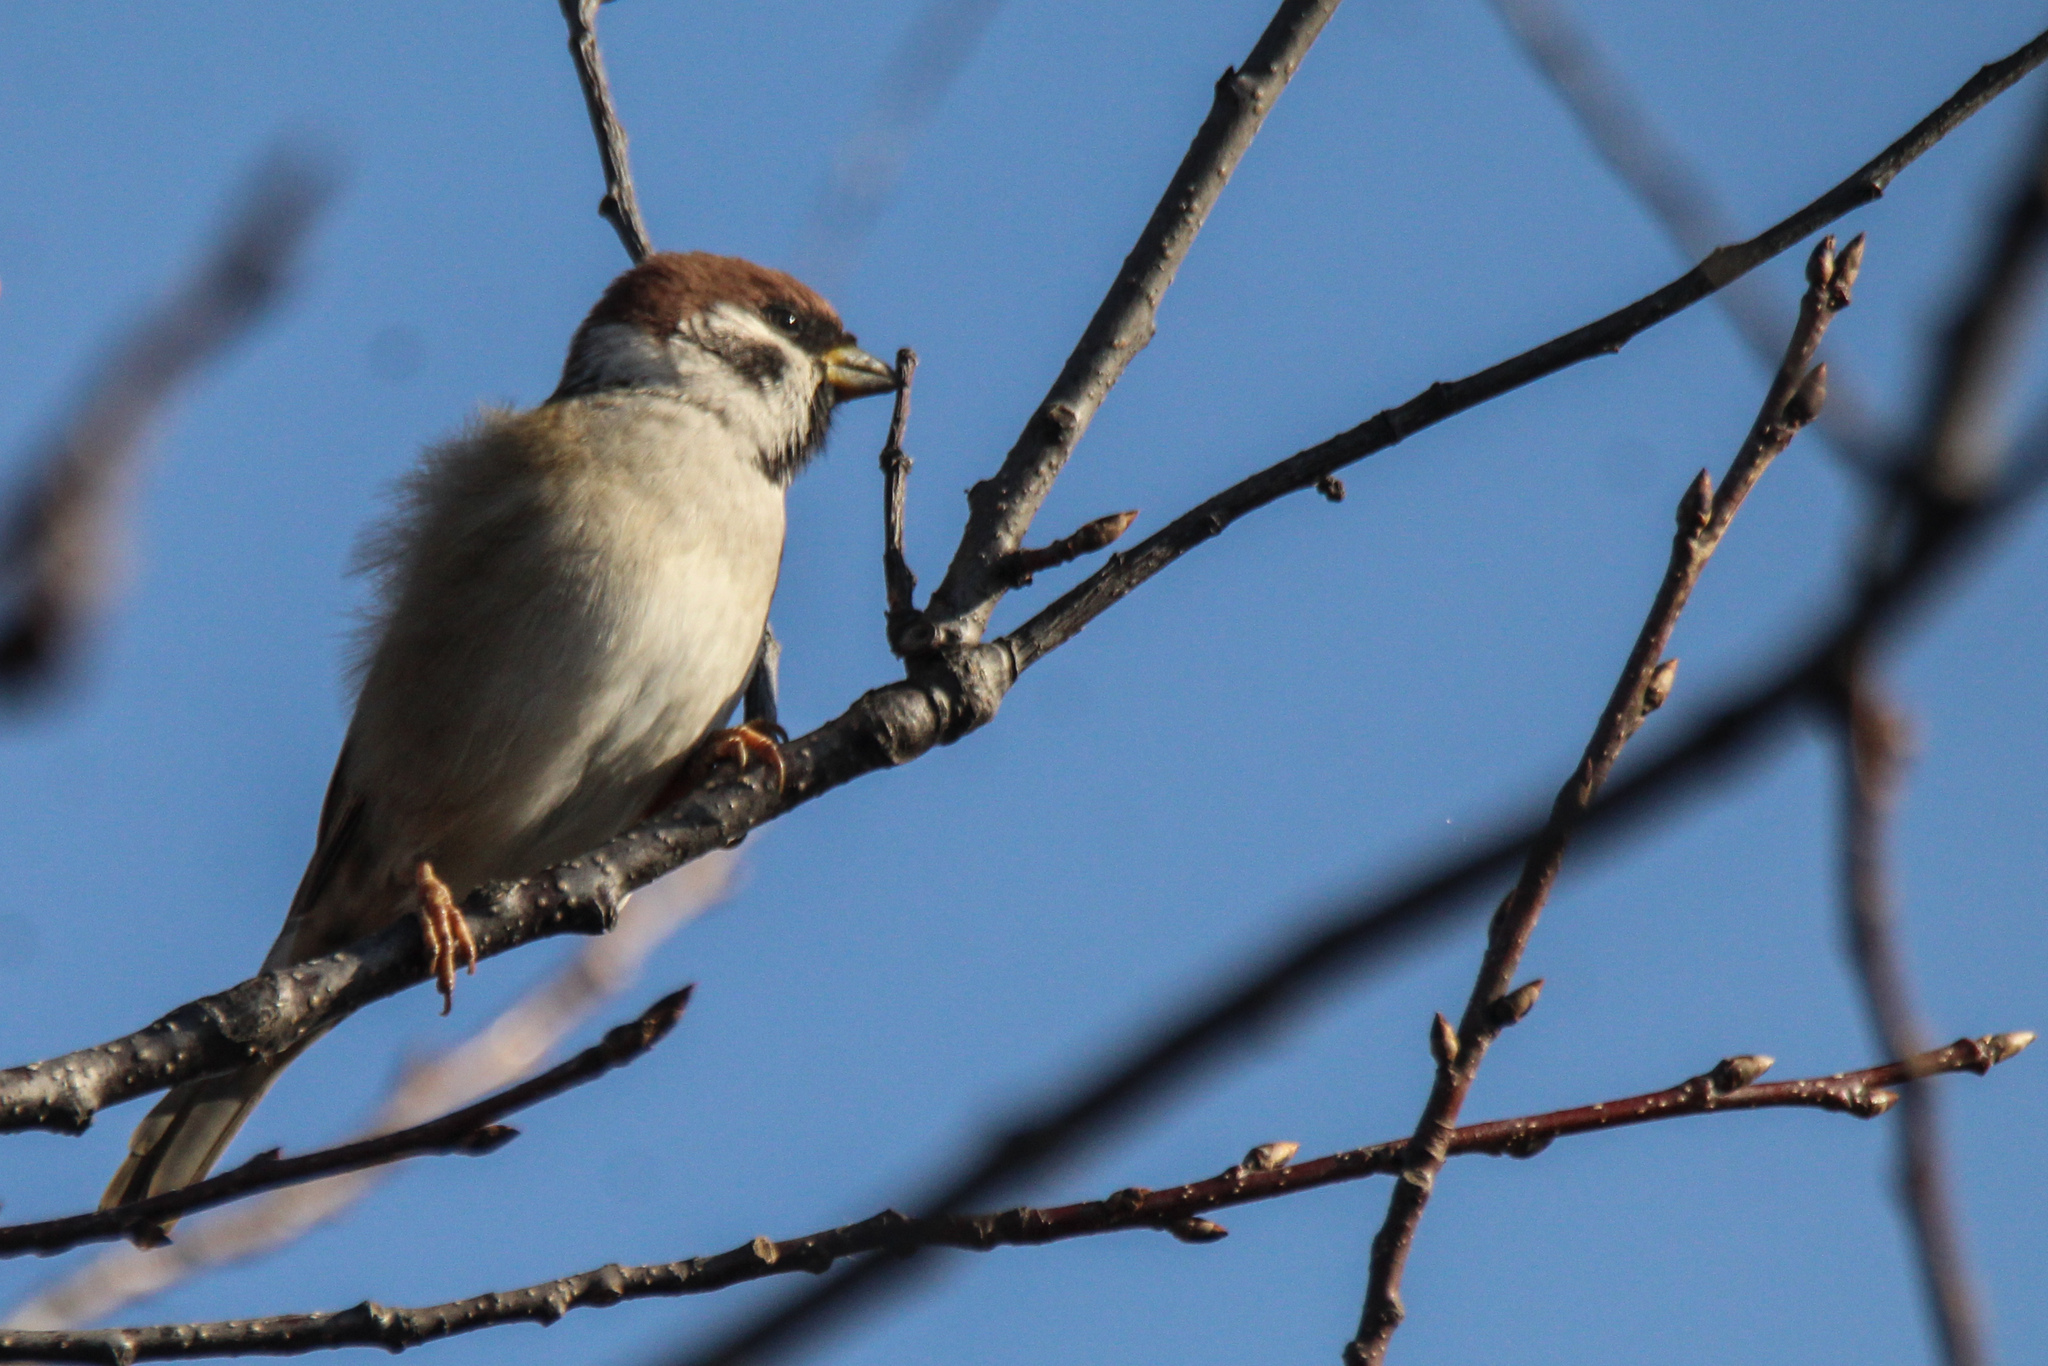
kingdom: Animalia
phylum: Chordata
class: Aves
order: Passeriformes
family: Passeridae
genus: Passer
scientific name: Passer montanus
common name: Eurasian tree sparrow
